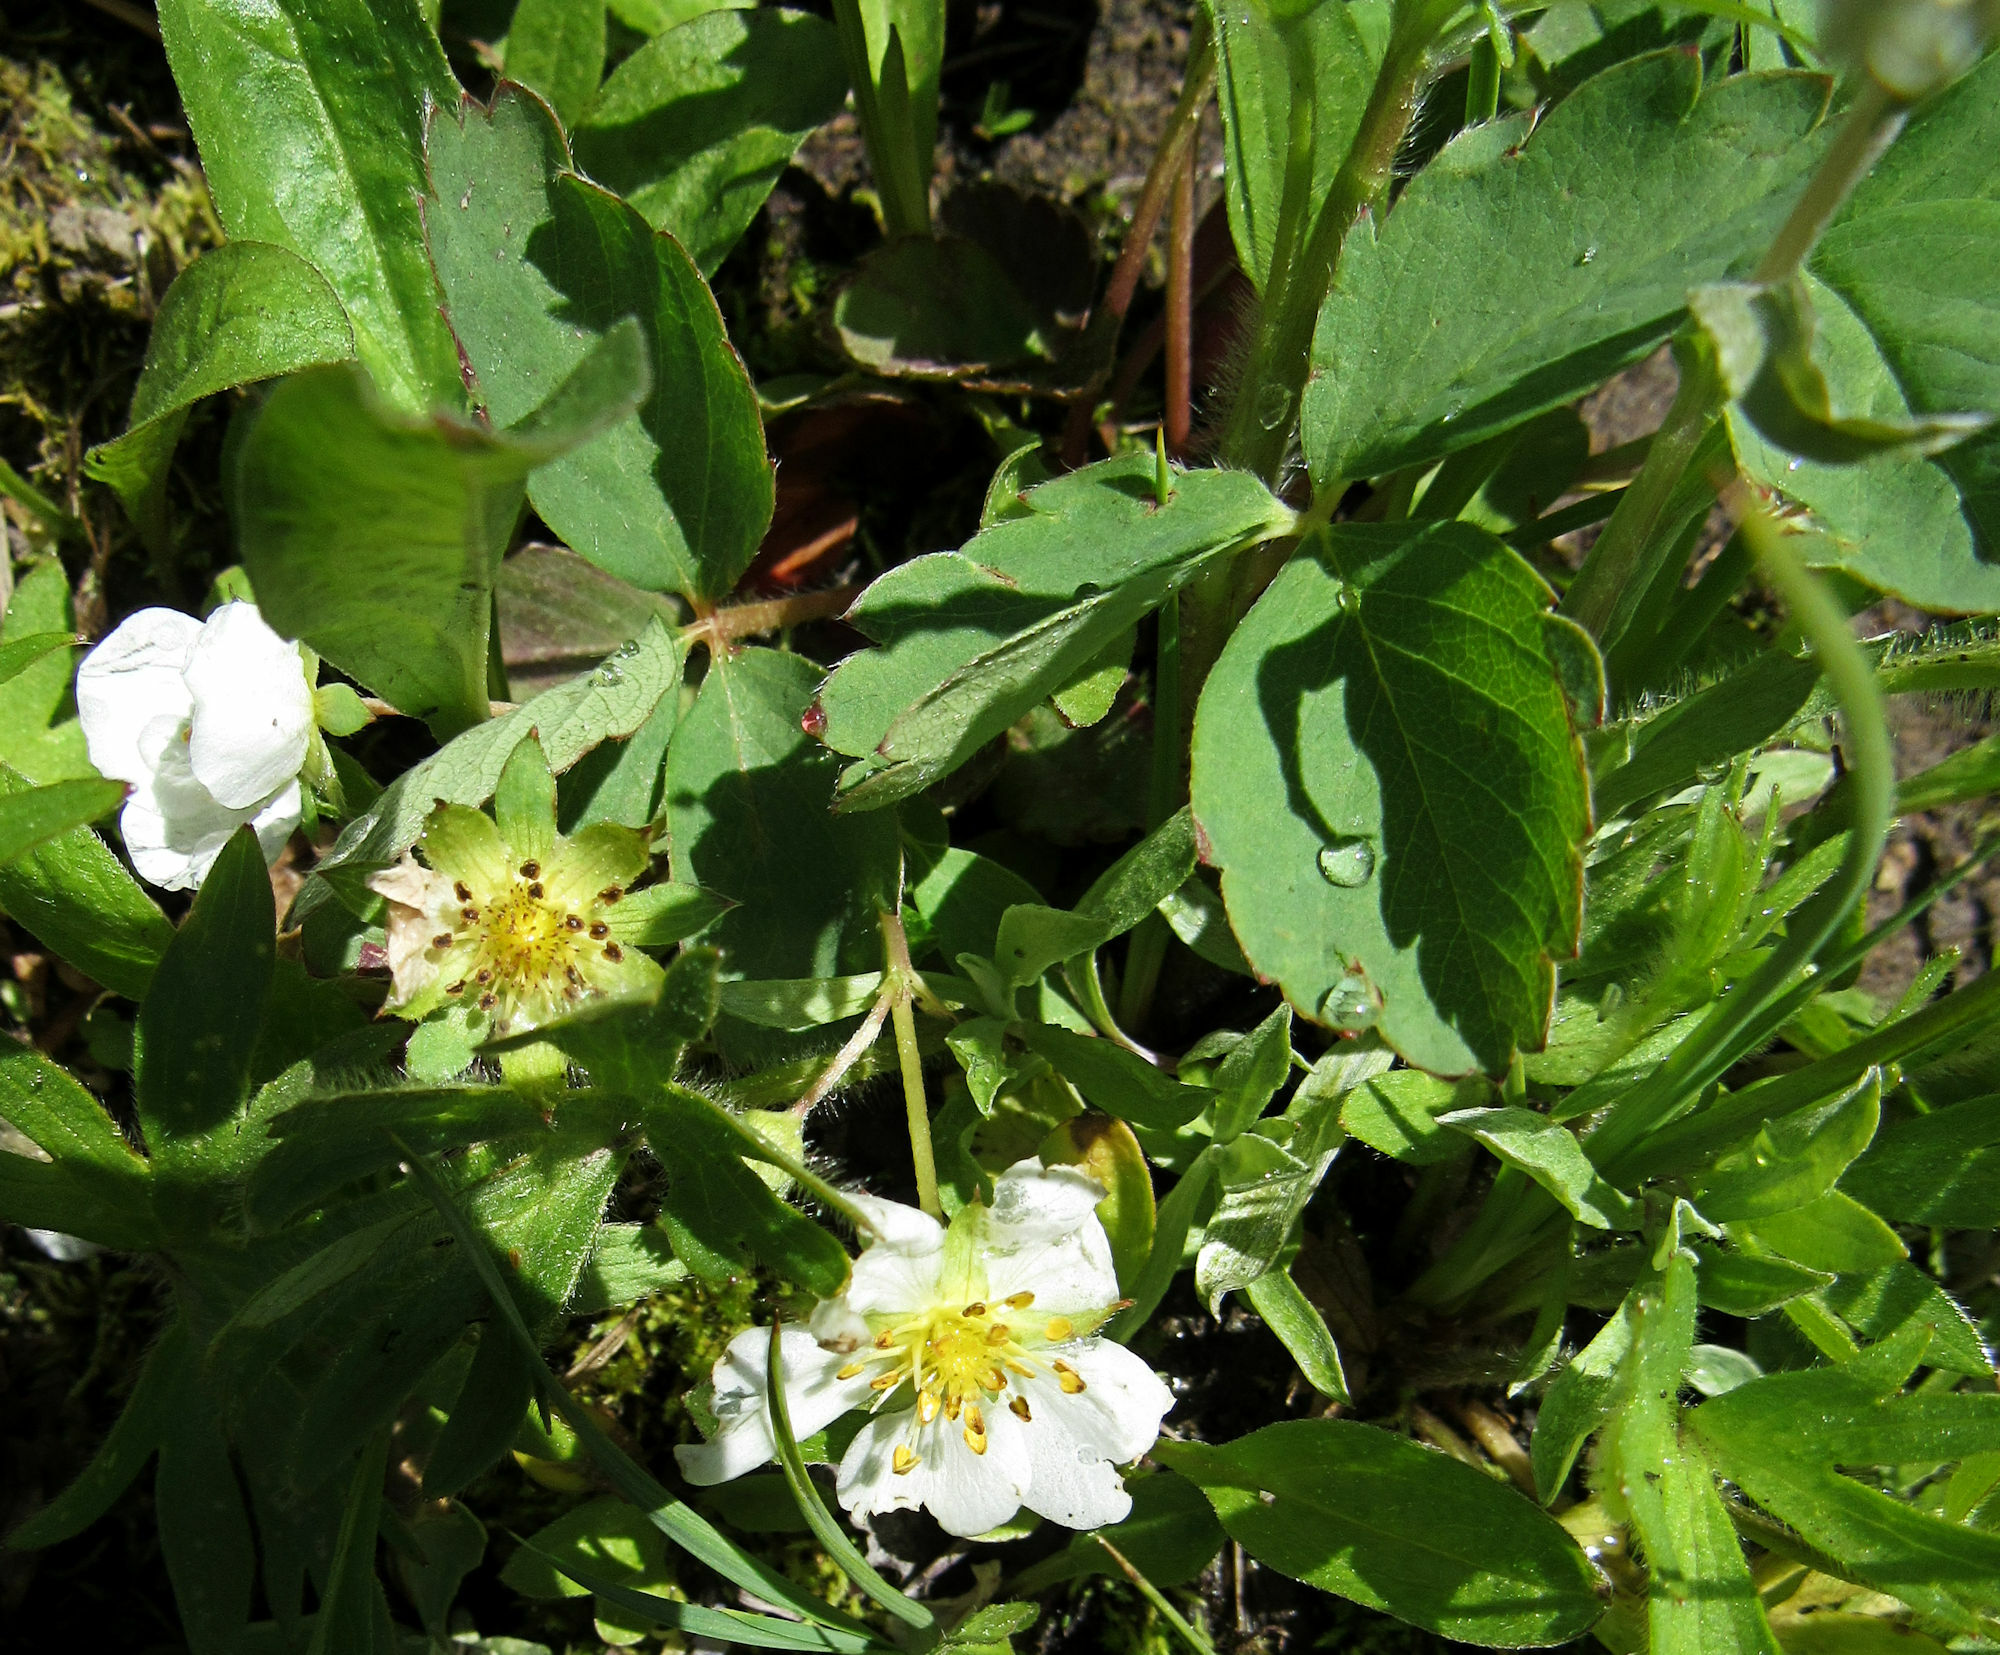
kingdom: Plantae
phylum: Tracheophyta
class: Magnoliopsida
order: Rosales
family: Rosaceae
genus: Fragaria
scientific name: Fragaria virginiana
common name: Thickleaved wild strawberry
